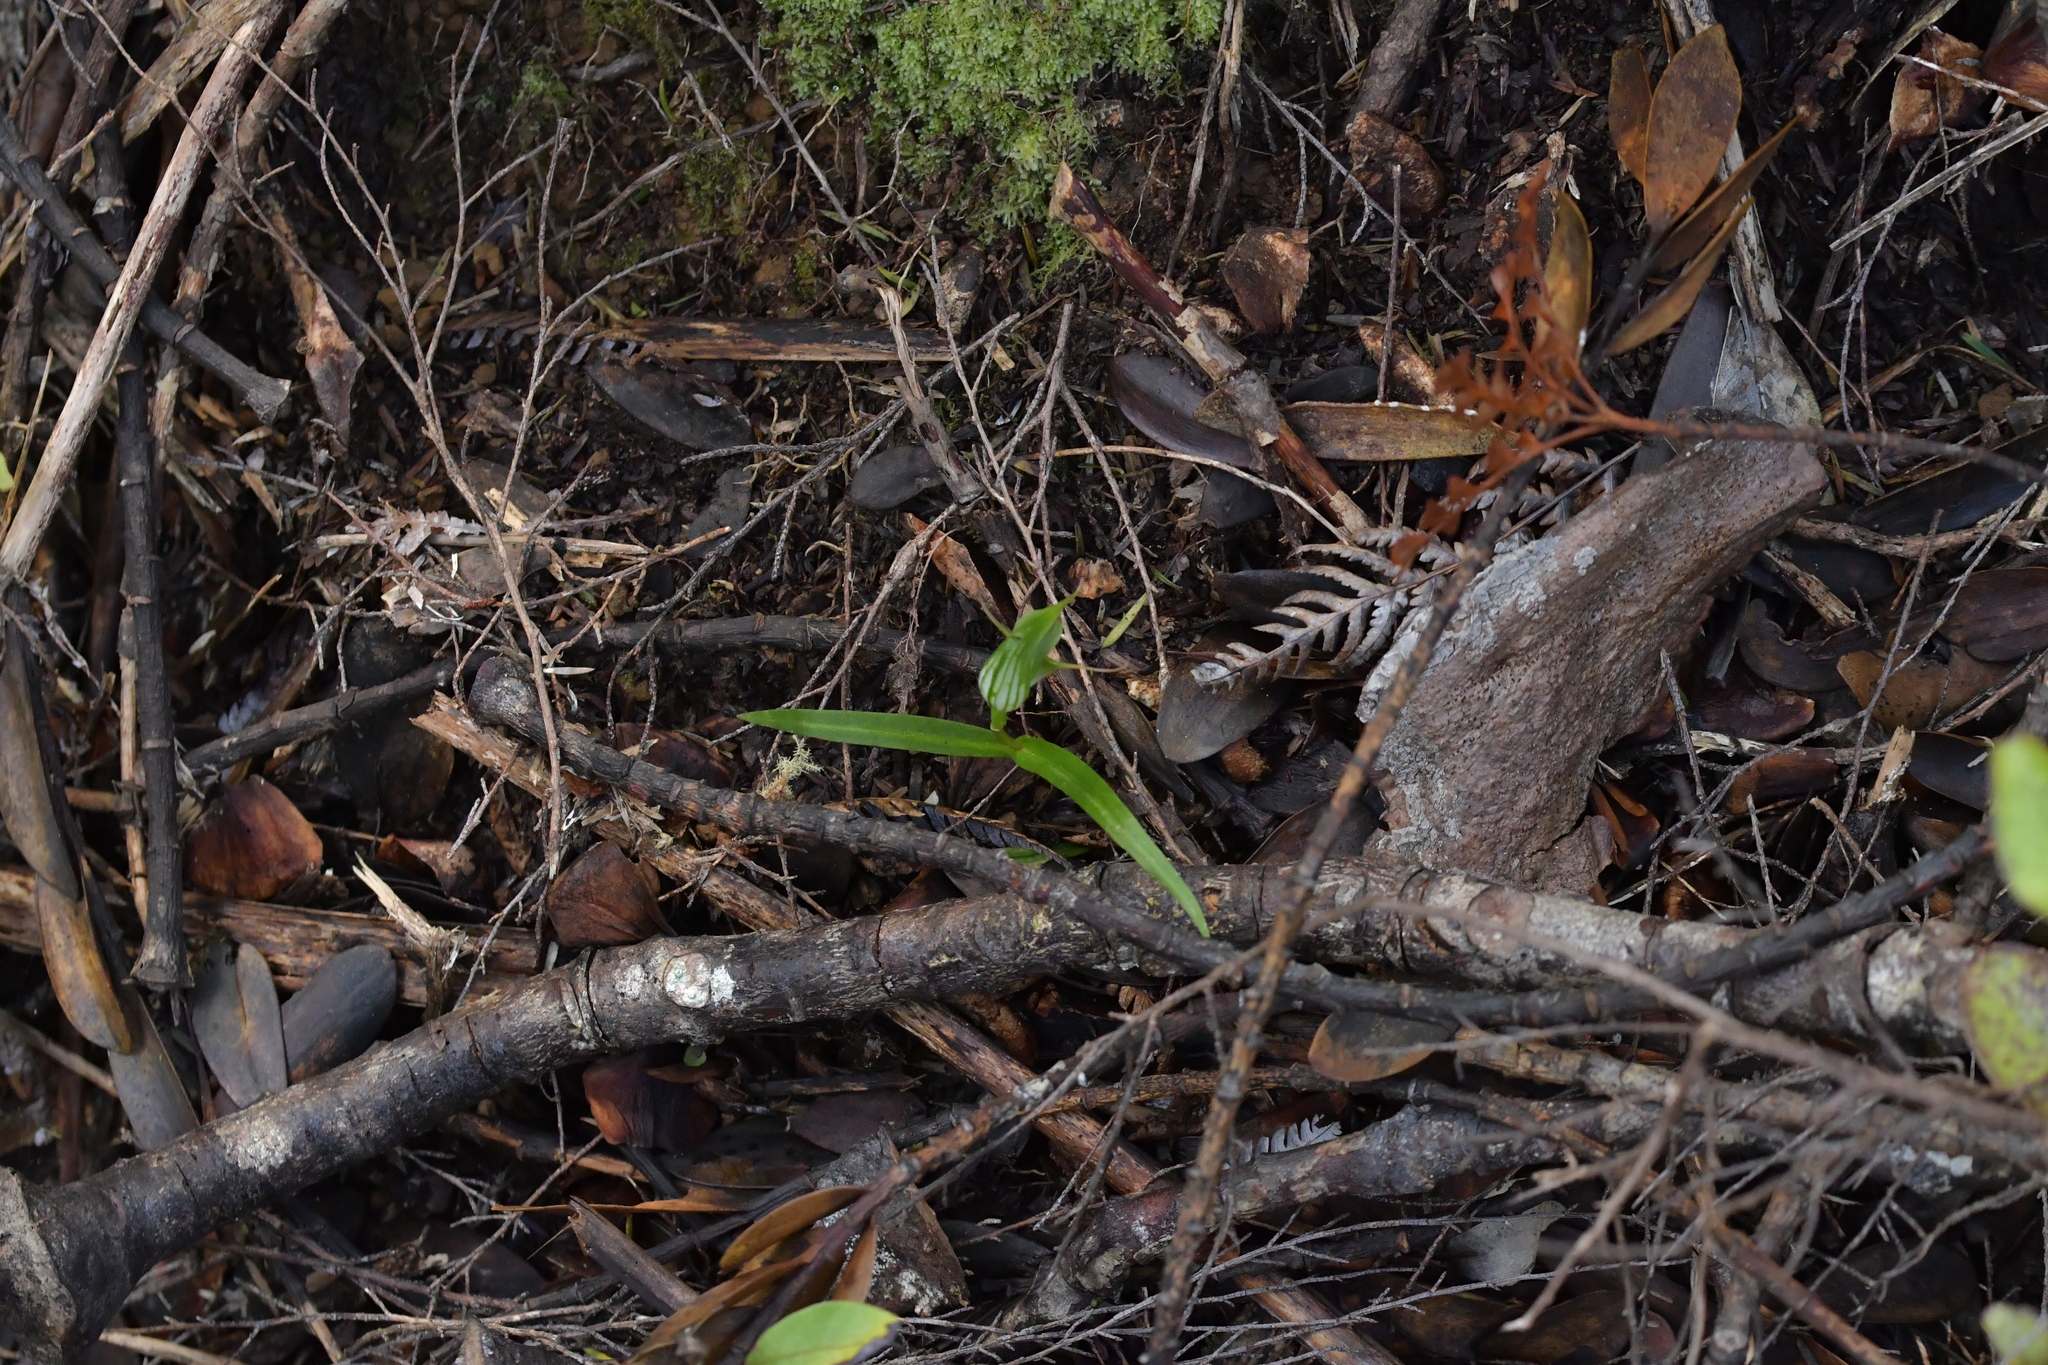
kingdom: Plantae
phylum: Tracheophyta
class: Liliopsida
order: Asparagales
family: Orchidaceae
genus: Pterostylis
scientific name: Pterostylis agathicola
